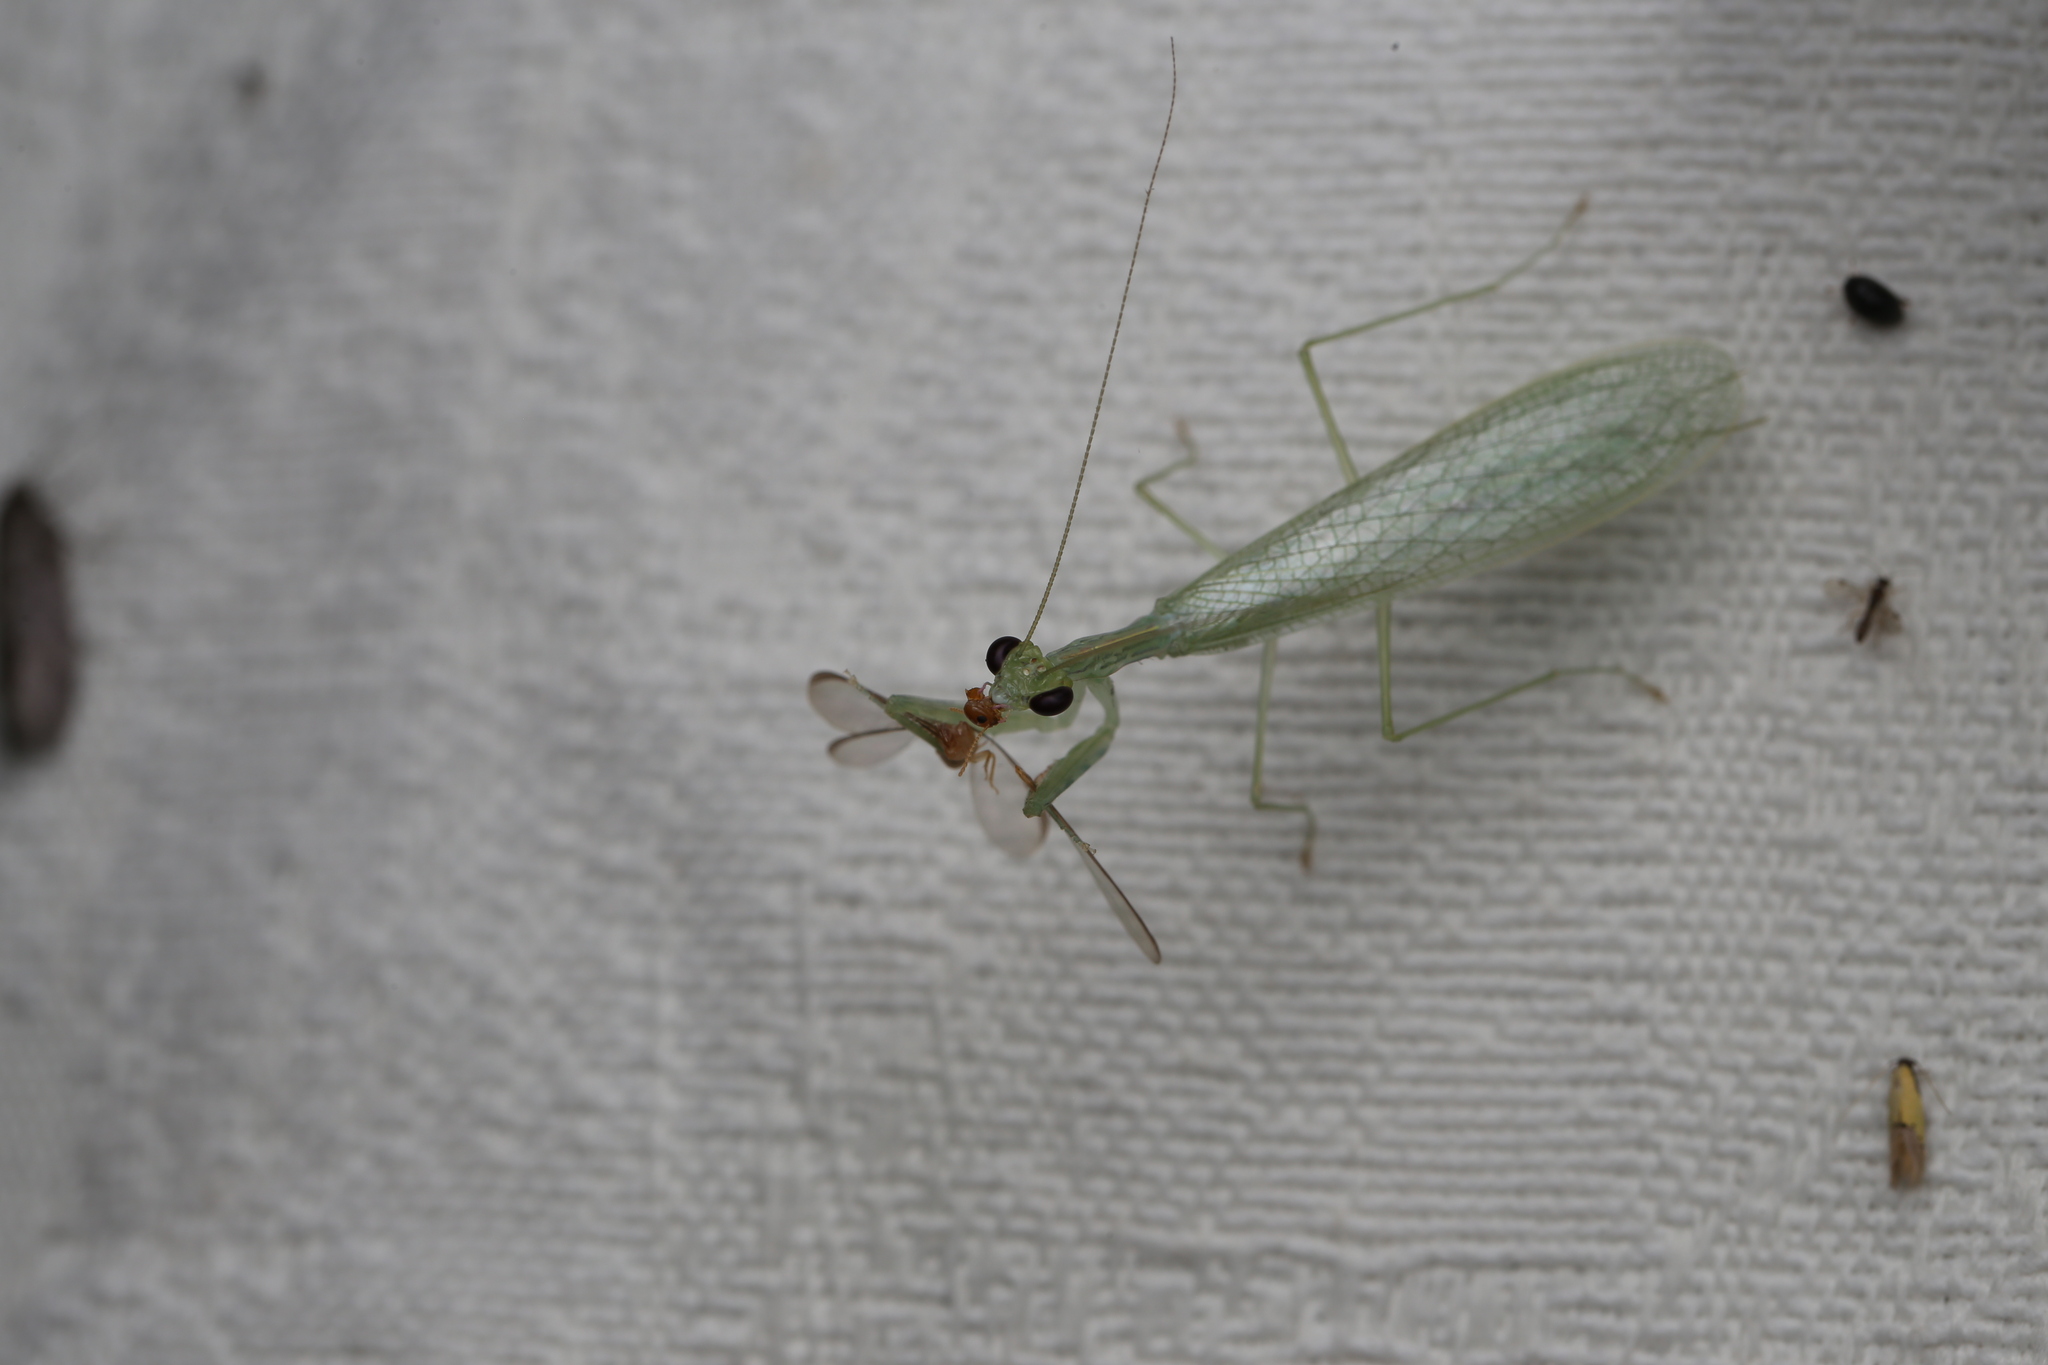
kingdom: Animalia
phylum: Arthropoda
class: Insecta
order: Mantodea
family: Nanomantidae
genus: Kongobatha
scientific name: Kongobatha diademata
